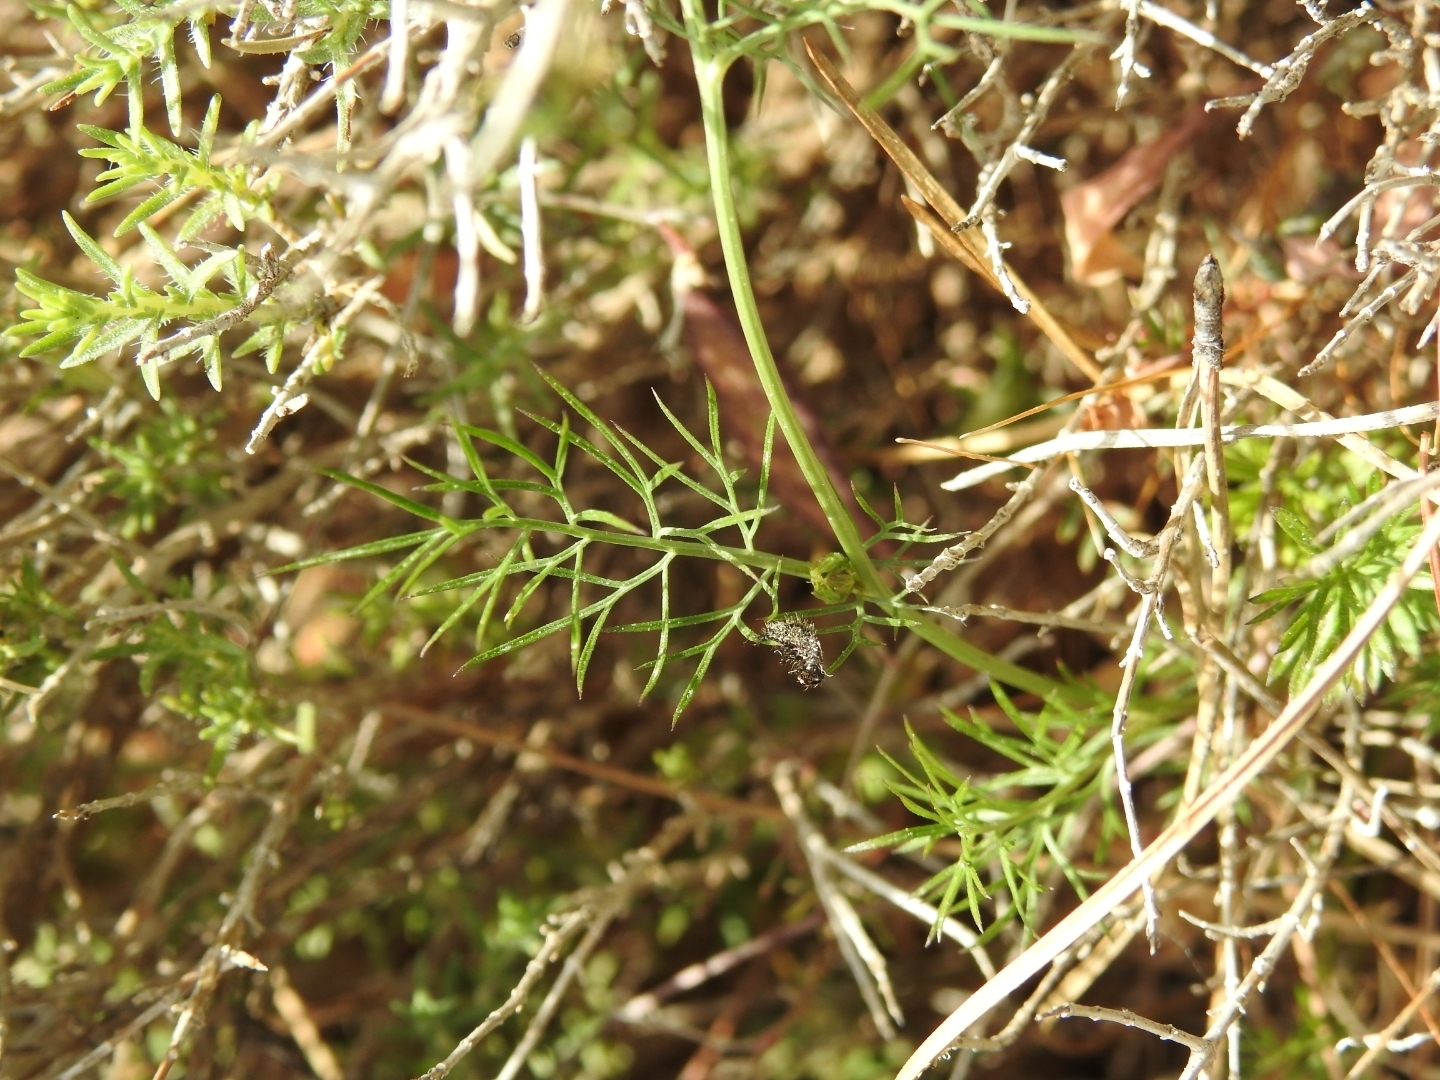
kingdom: Plantae
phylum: Tracheophyta
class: Magnoliopsida
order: Ranunculales
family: Ranunculaceae
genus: Nigella
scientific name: Nigella damascena
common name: Love-in-a-mist
